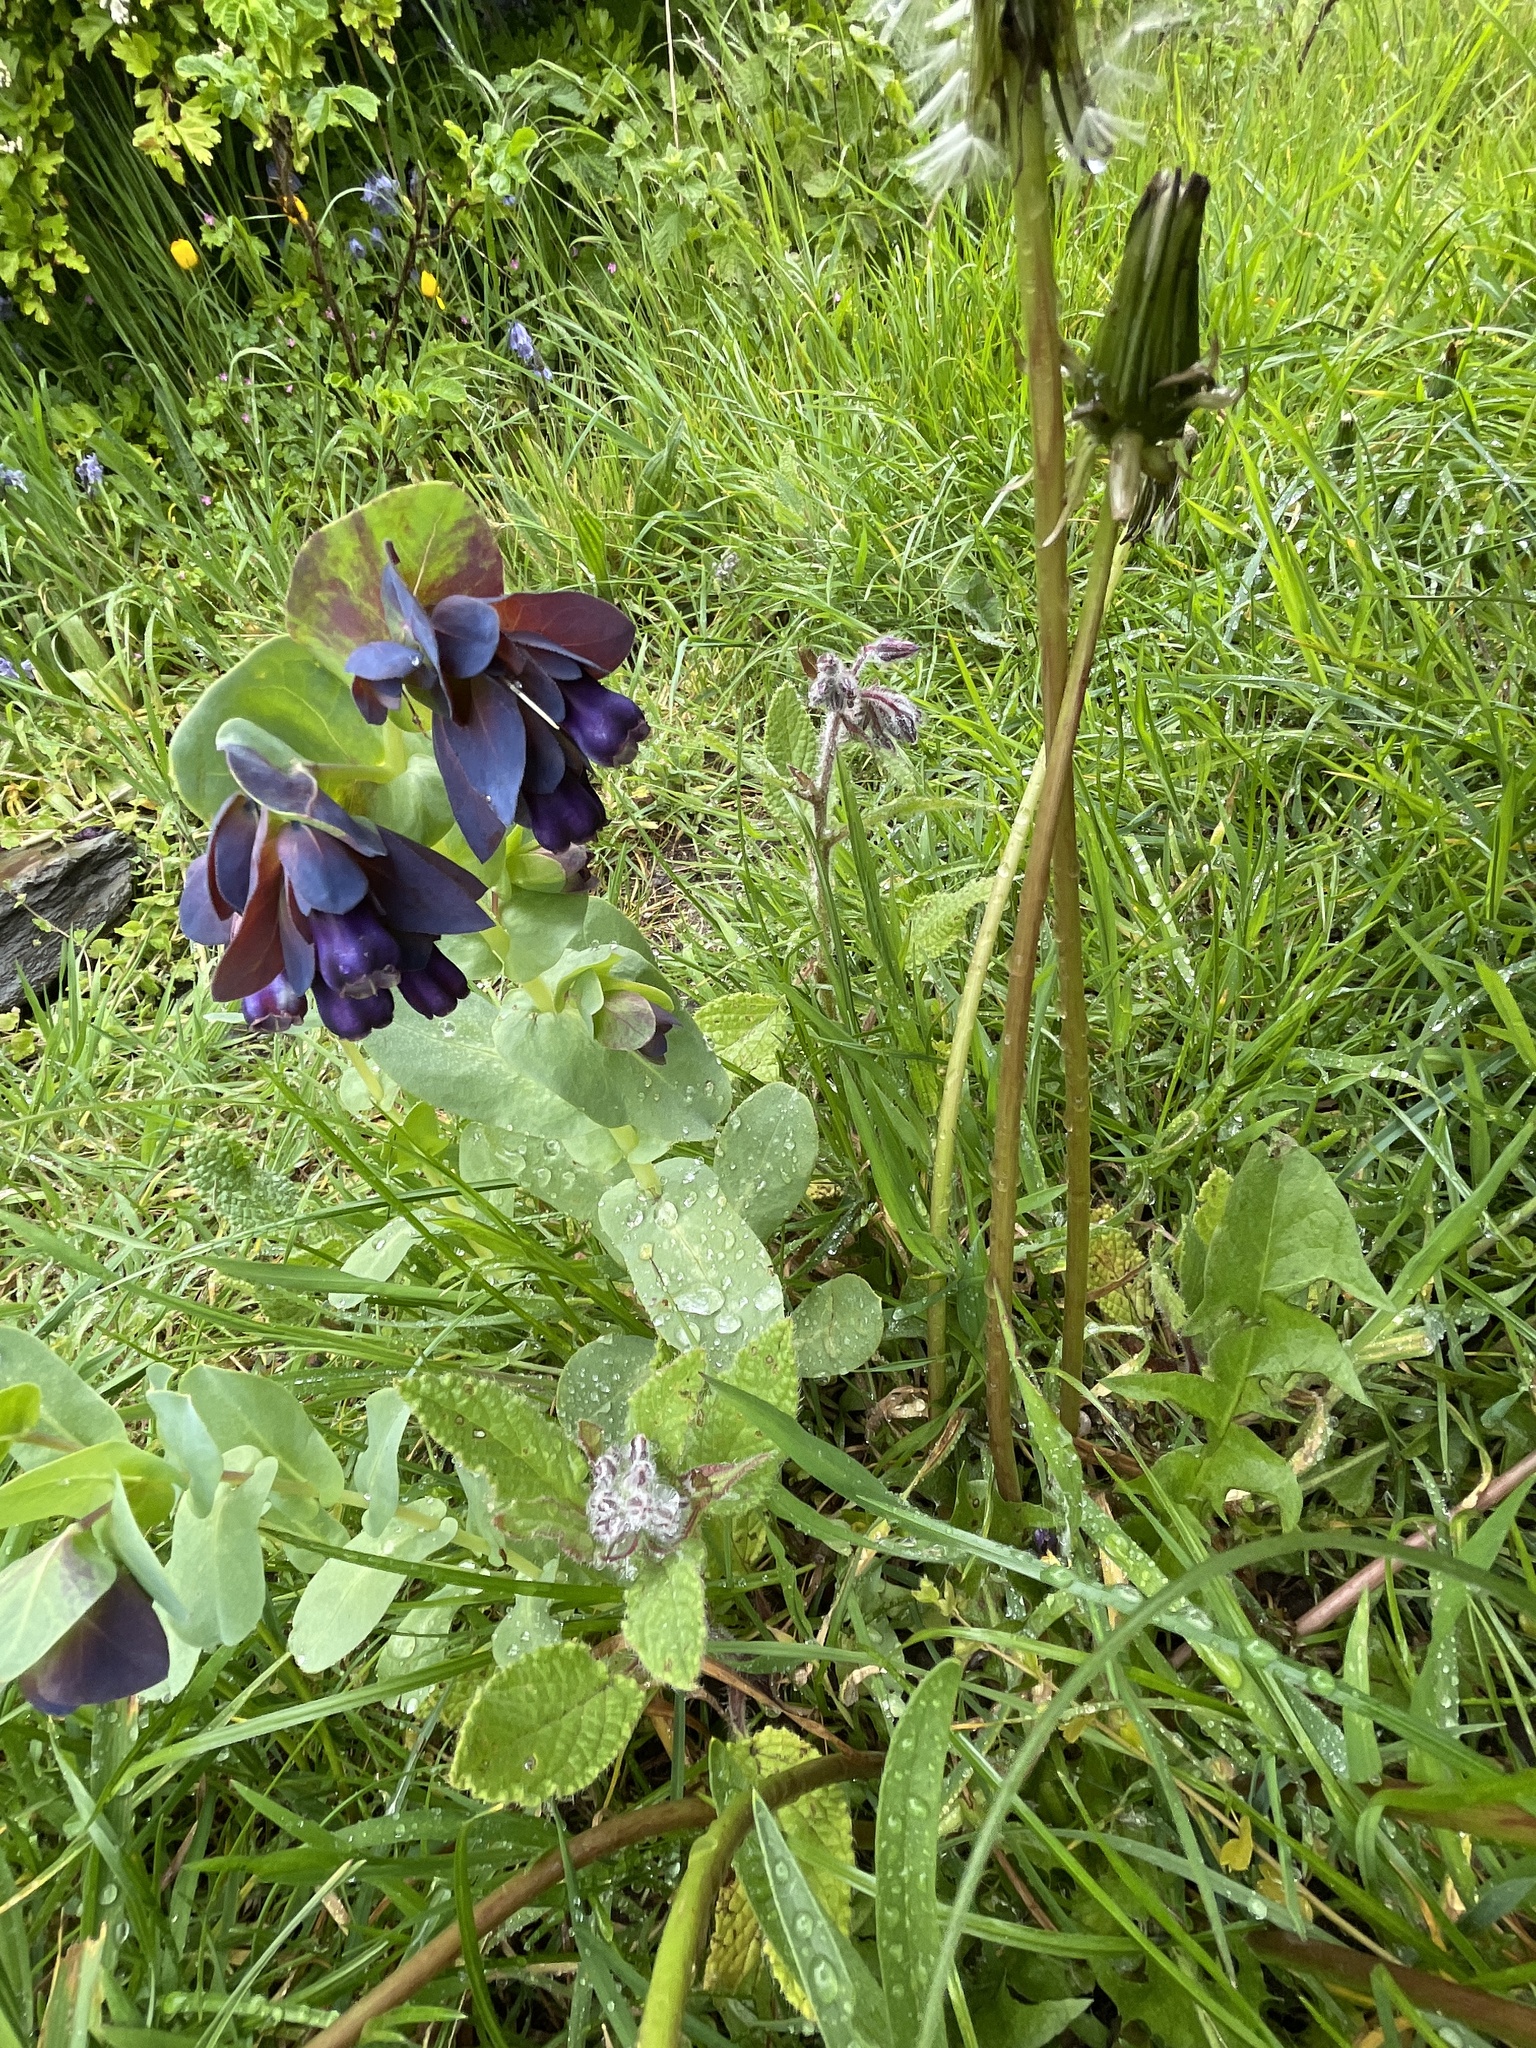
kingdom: Plantae
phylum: Tracheophyta
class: Magnoliopsida
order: Boraginales
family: Boraginaceae
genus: Cerinthe
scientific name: Cerinthe major
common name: Greater honeywort
